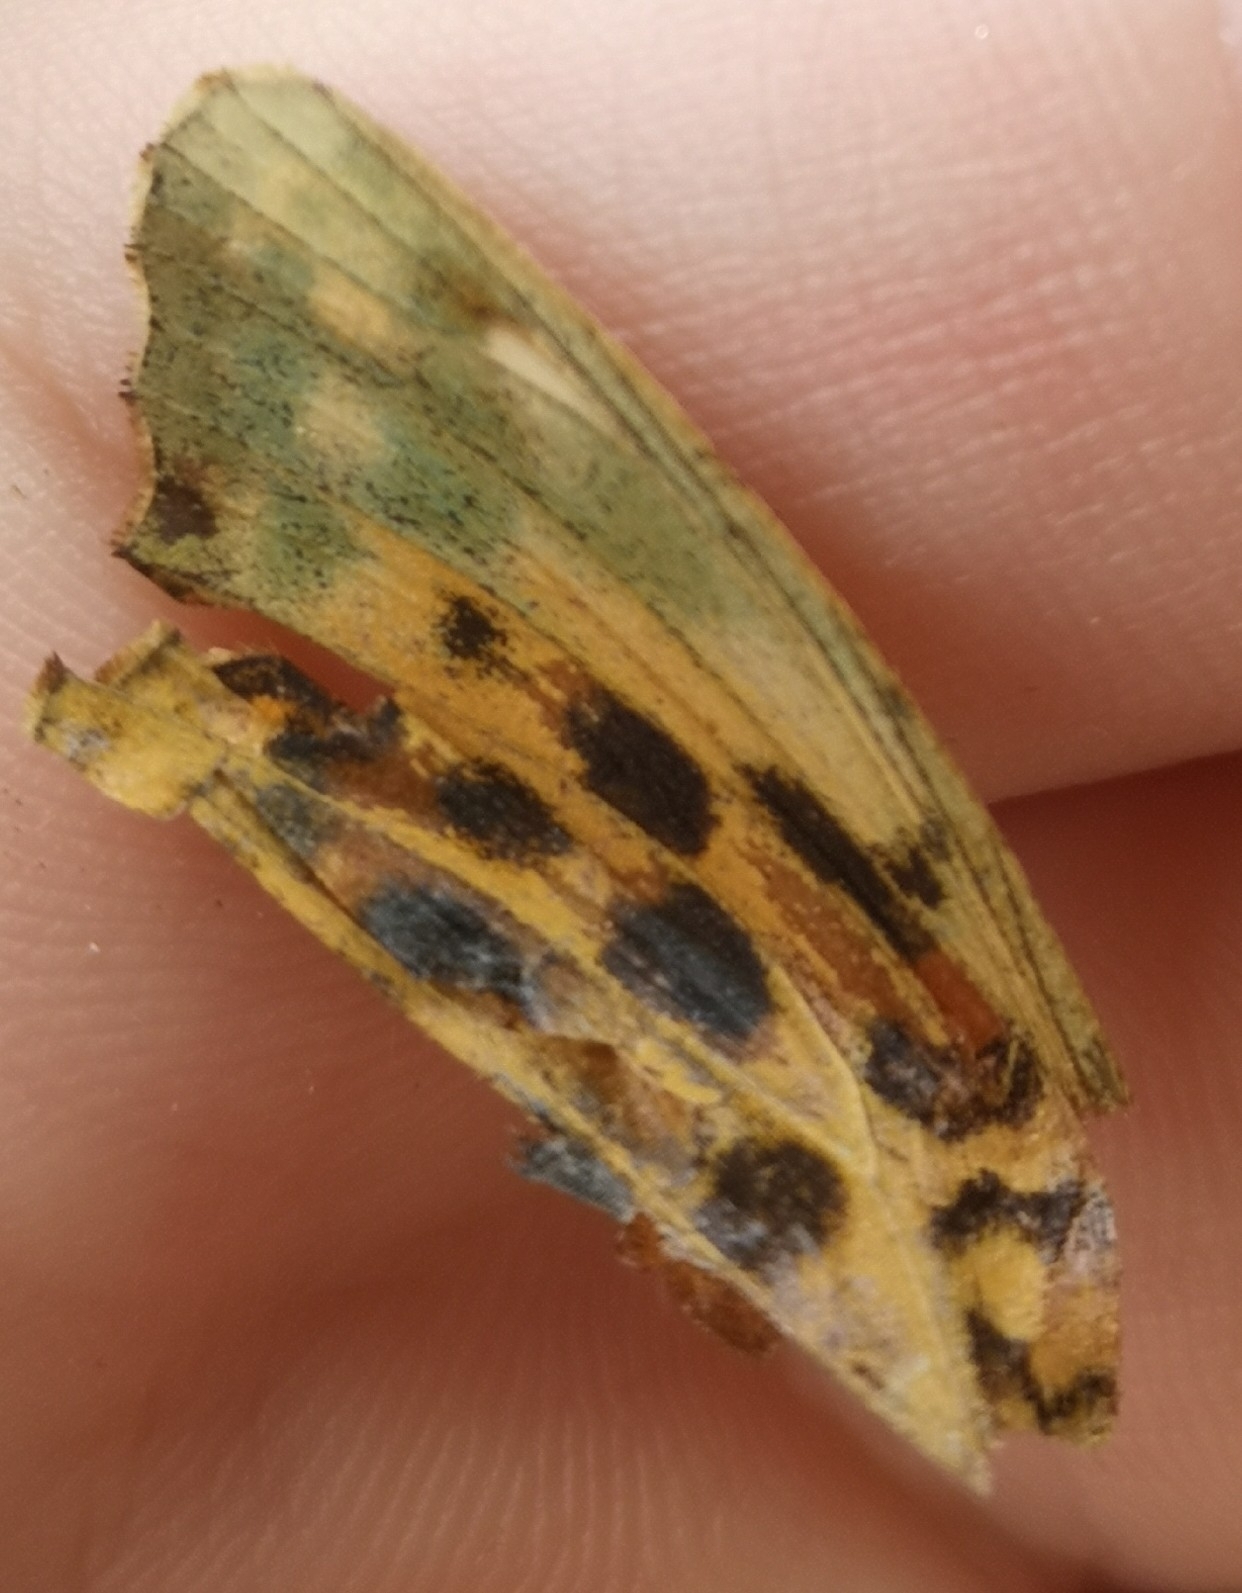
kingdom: Animalia
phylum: Arthropoda
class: Insecta
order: Lepidoptera
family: Nymphalidae
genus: Argynnis
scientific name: Argynnis paphia
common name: Silver-washed fritillary
